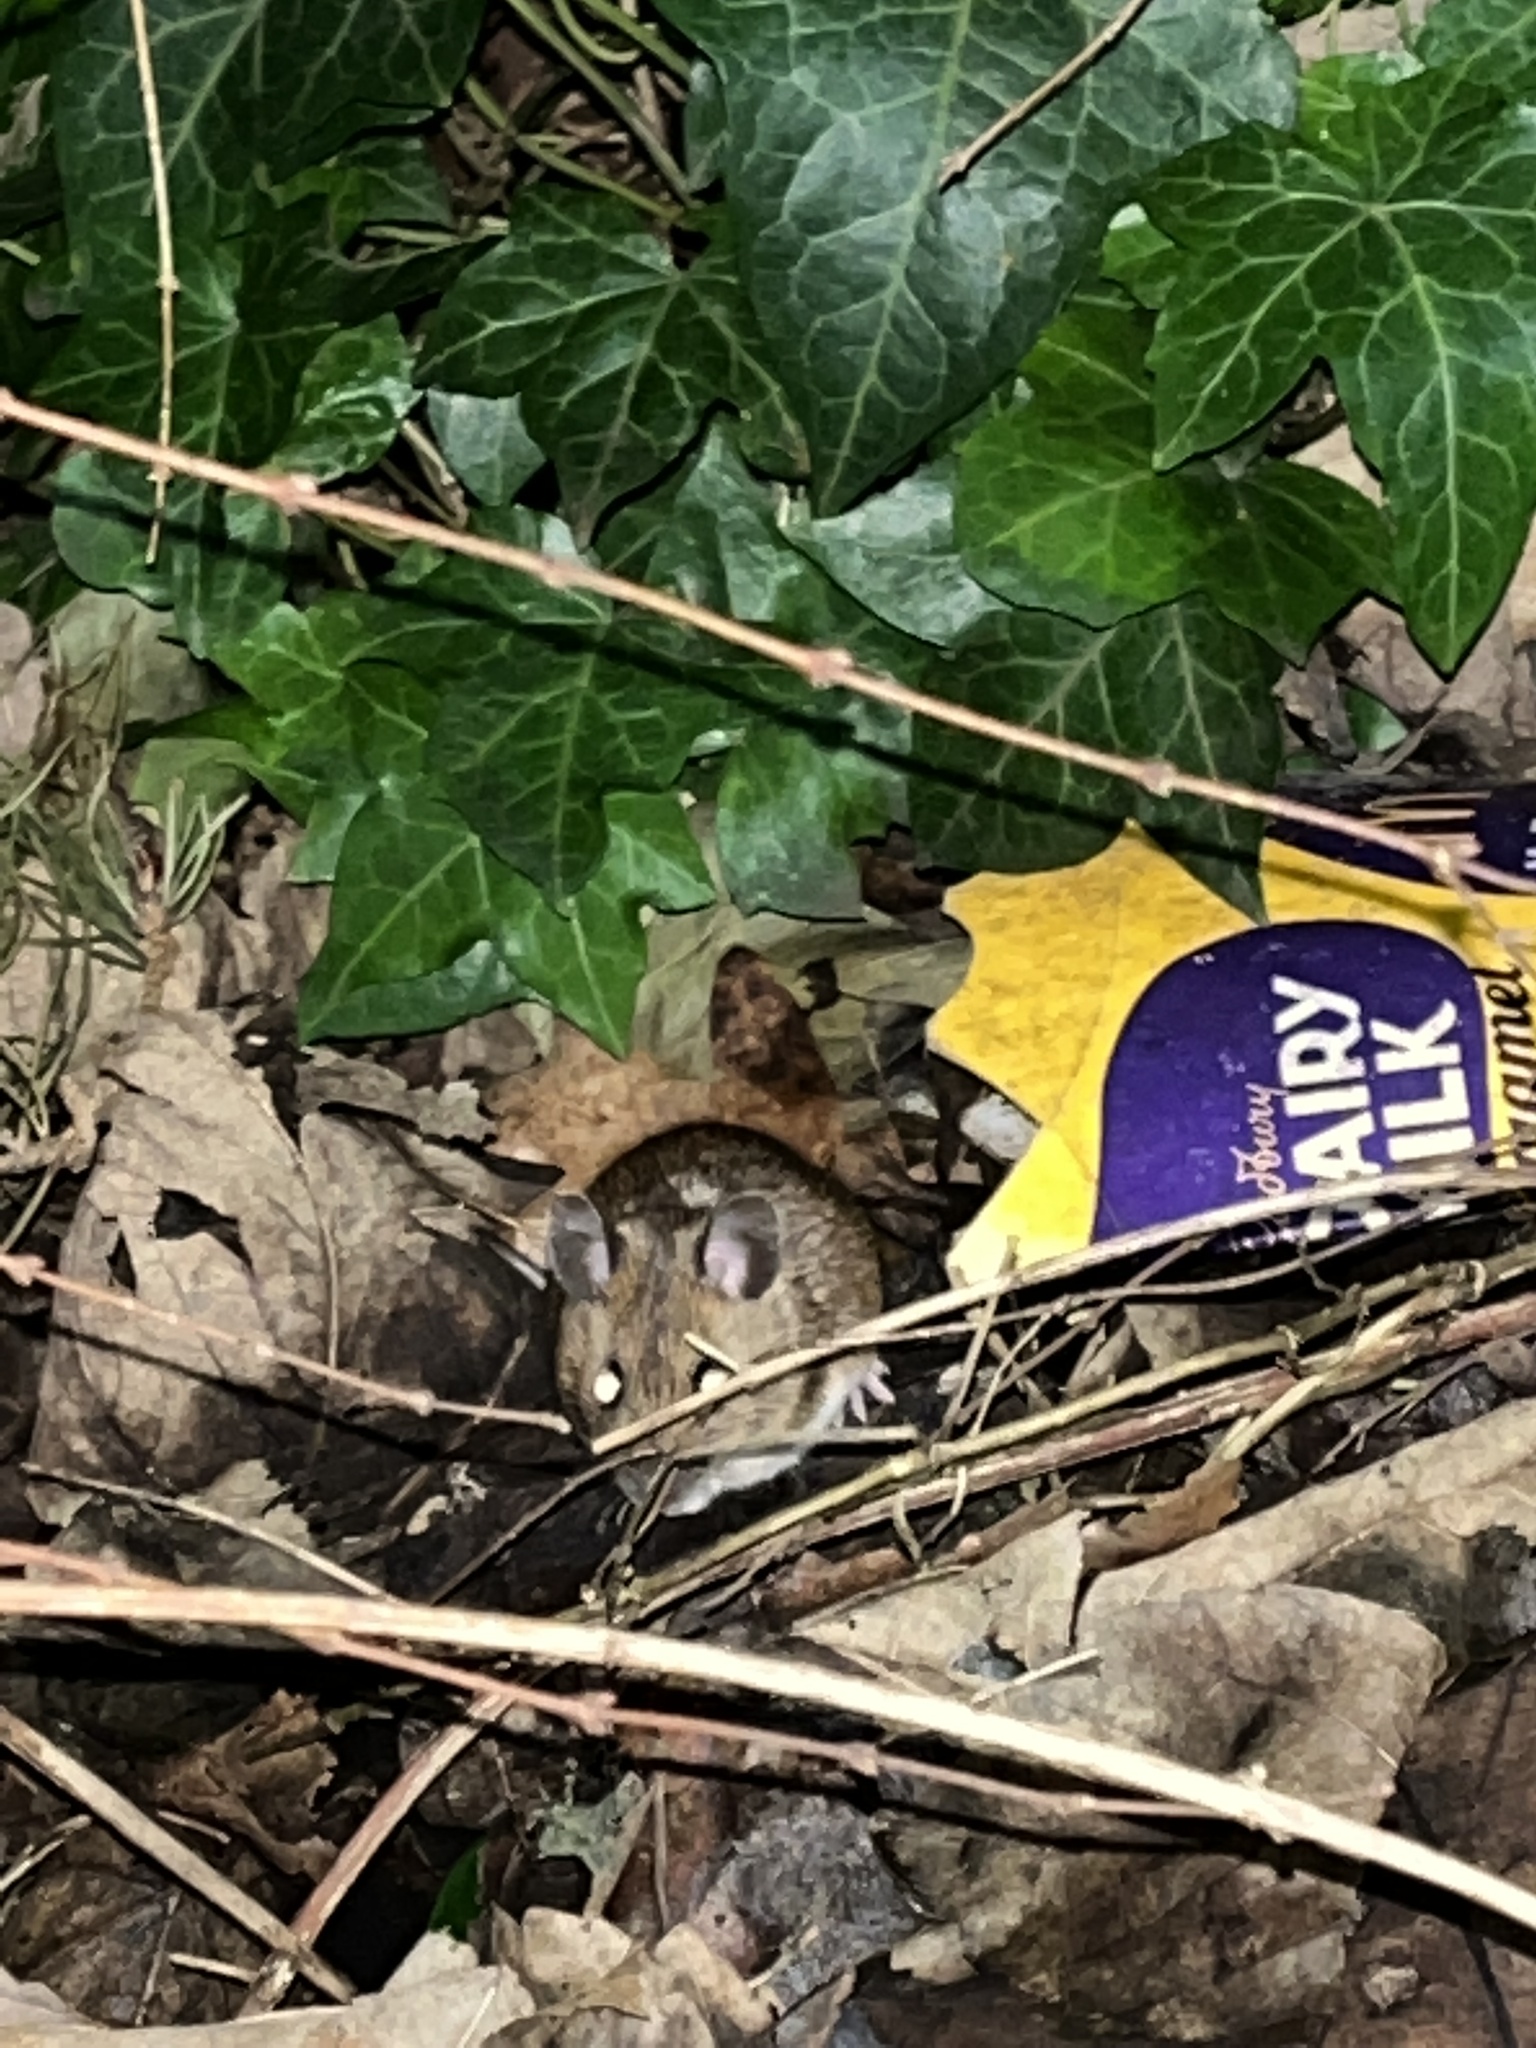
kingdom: Animalia
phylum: Chordata
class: Mammalia
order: Rodentia
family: Muridae
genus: Apodemus
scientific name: Apodemus sylvaticus
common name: Wood mouse
